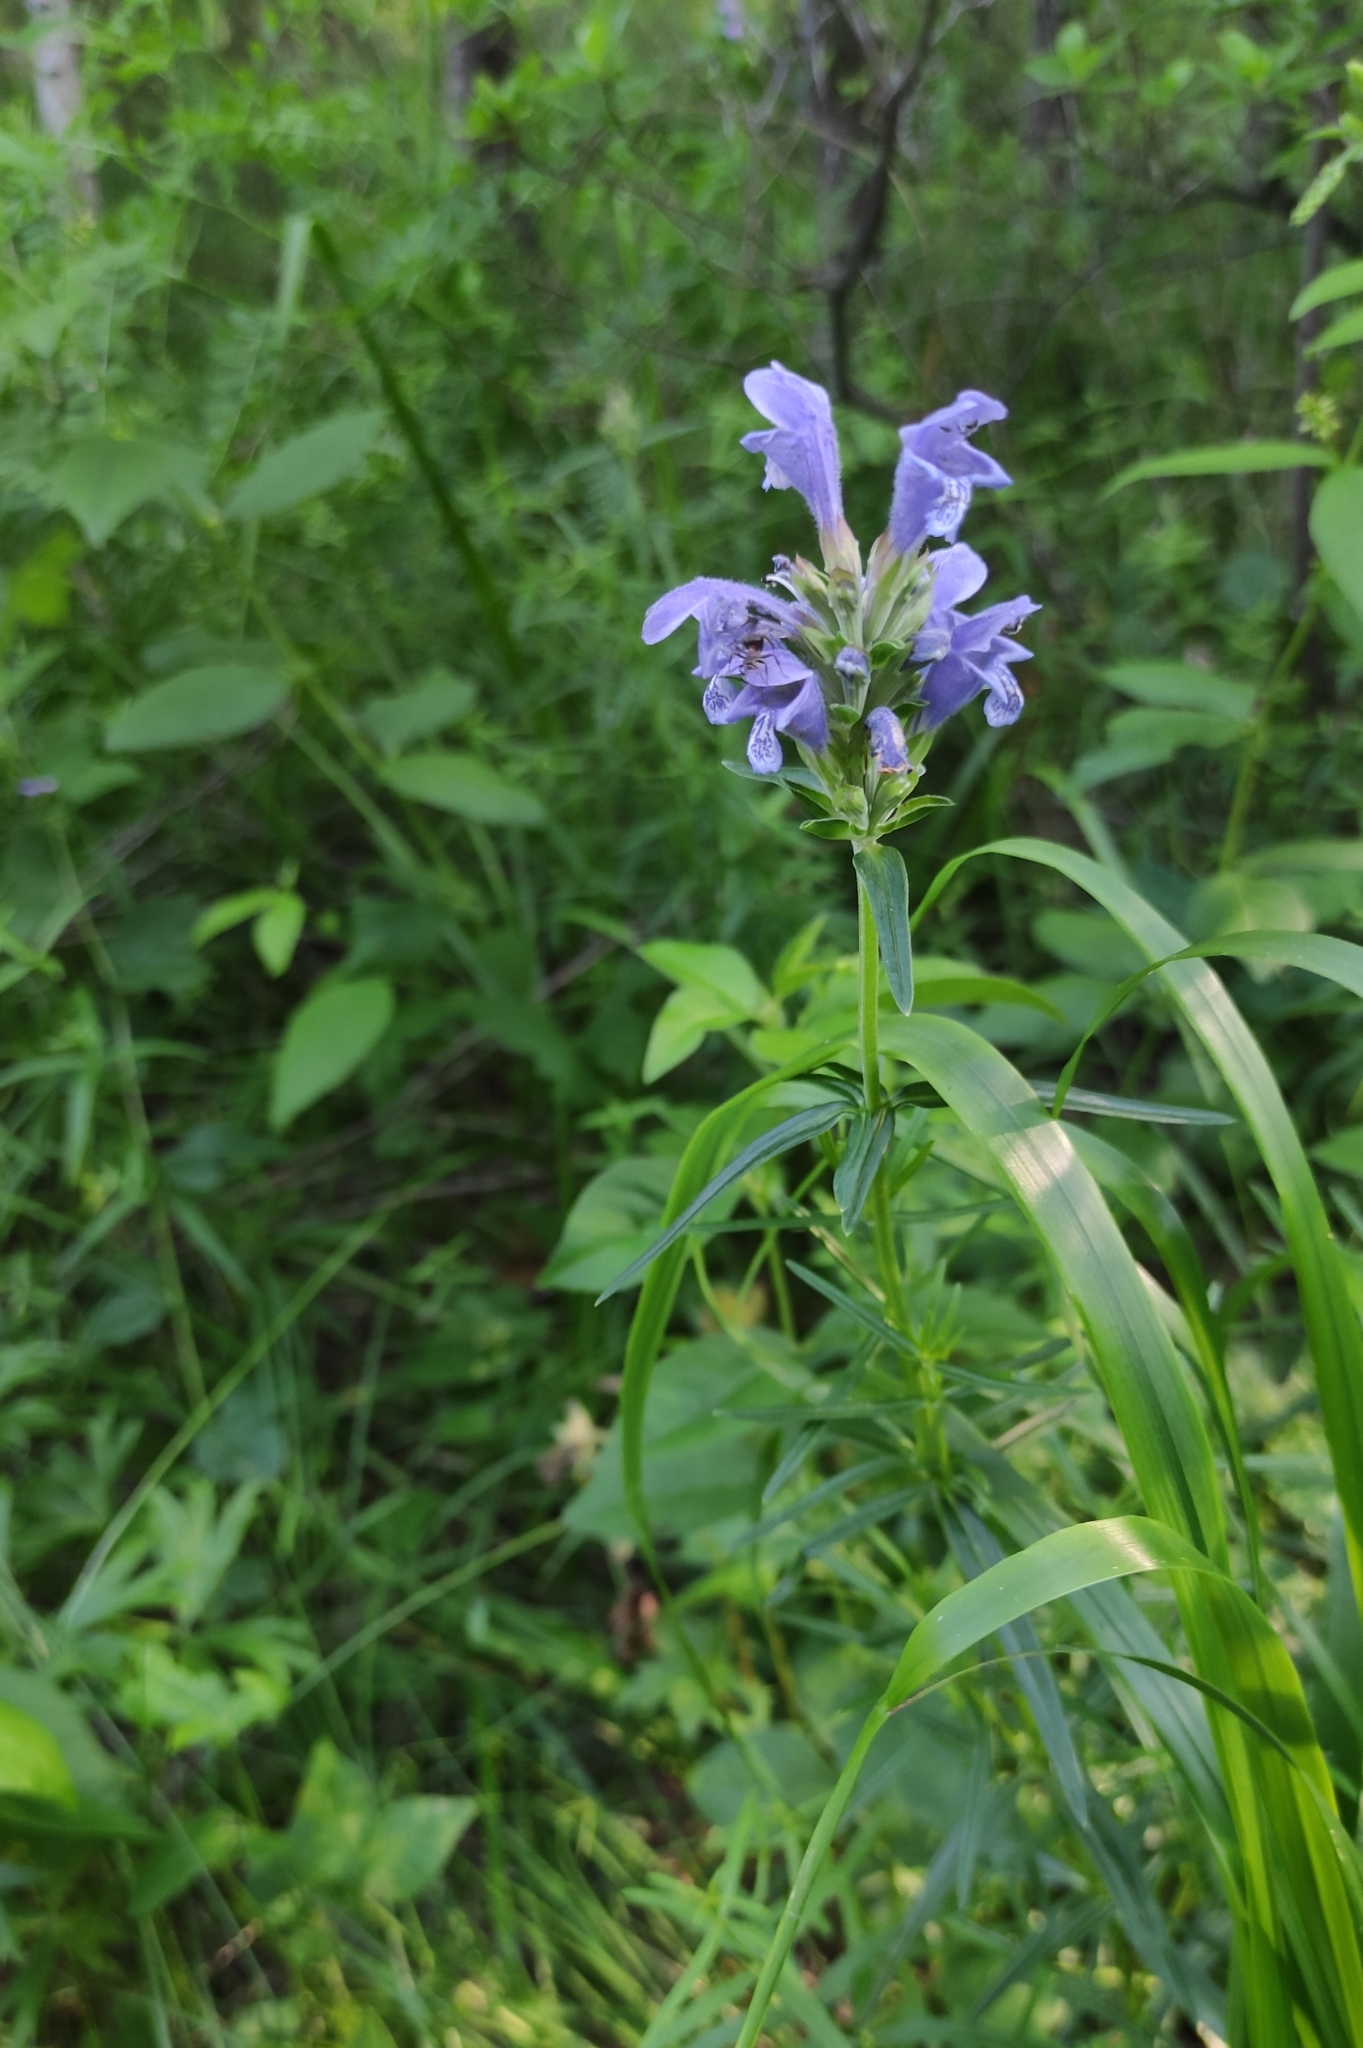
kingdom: Plantae
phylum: Tracheophyta
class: Magnoliopsida
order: Lamiales
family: Lamiaceae
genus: Dracocephalum
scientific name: Dracocephalum ruyschiana
